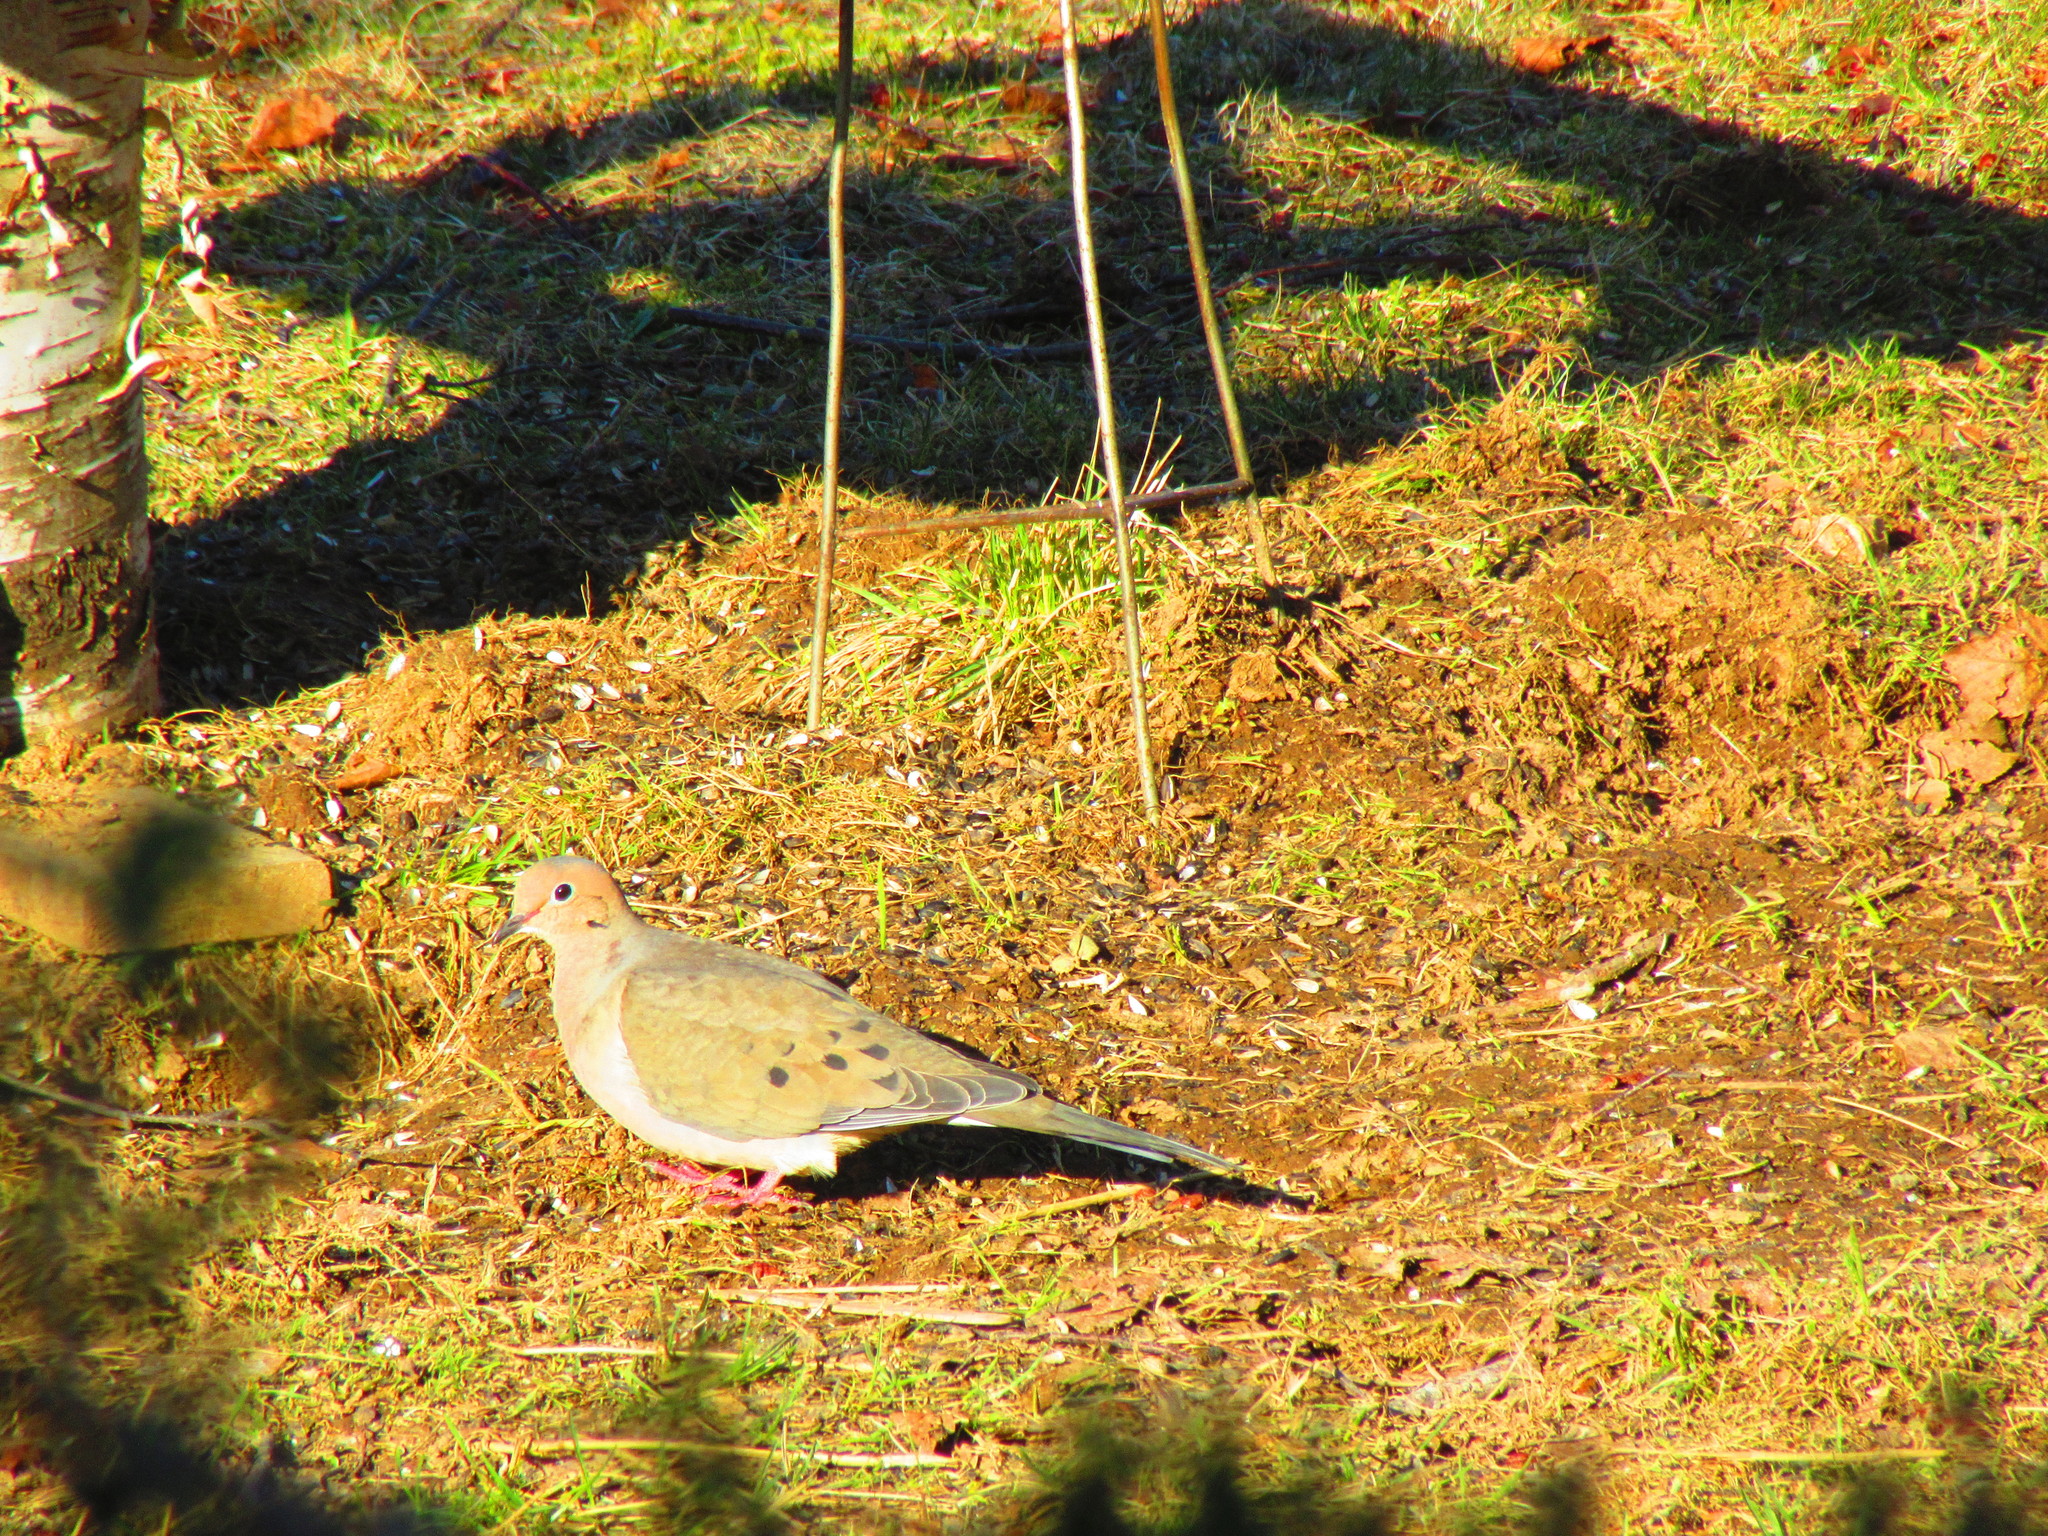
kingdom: Animalia
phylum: Chordata
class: Aves
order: Columbiformes
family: Columbidae
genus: Zenaida
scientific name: Zenaida macroura
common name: Mourning dove
